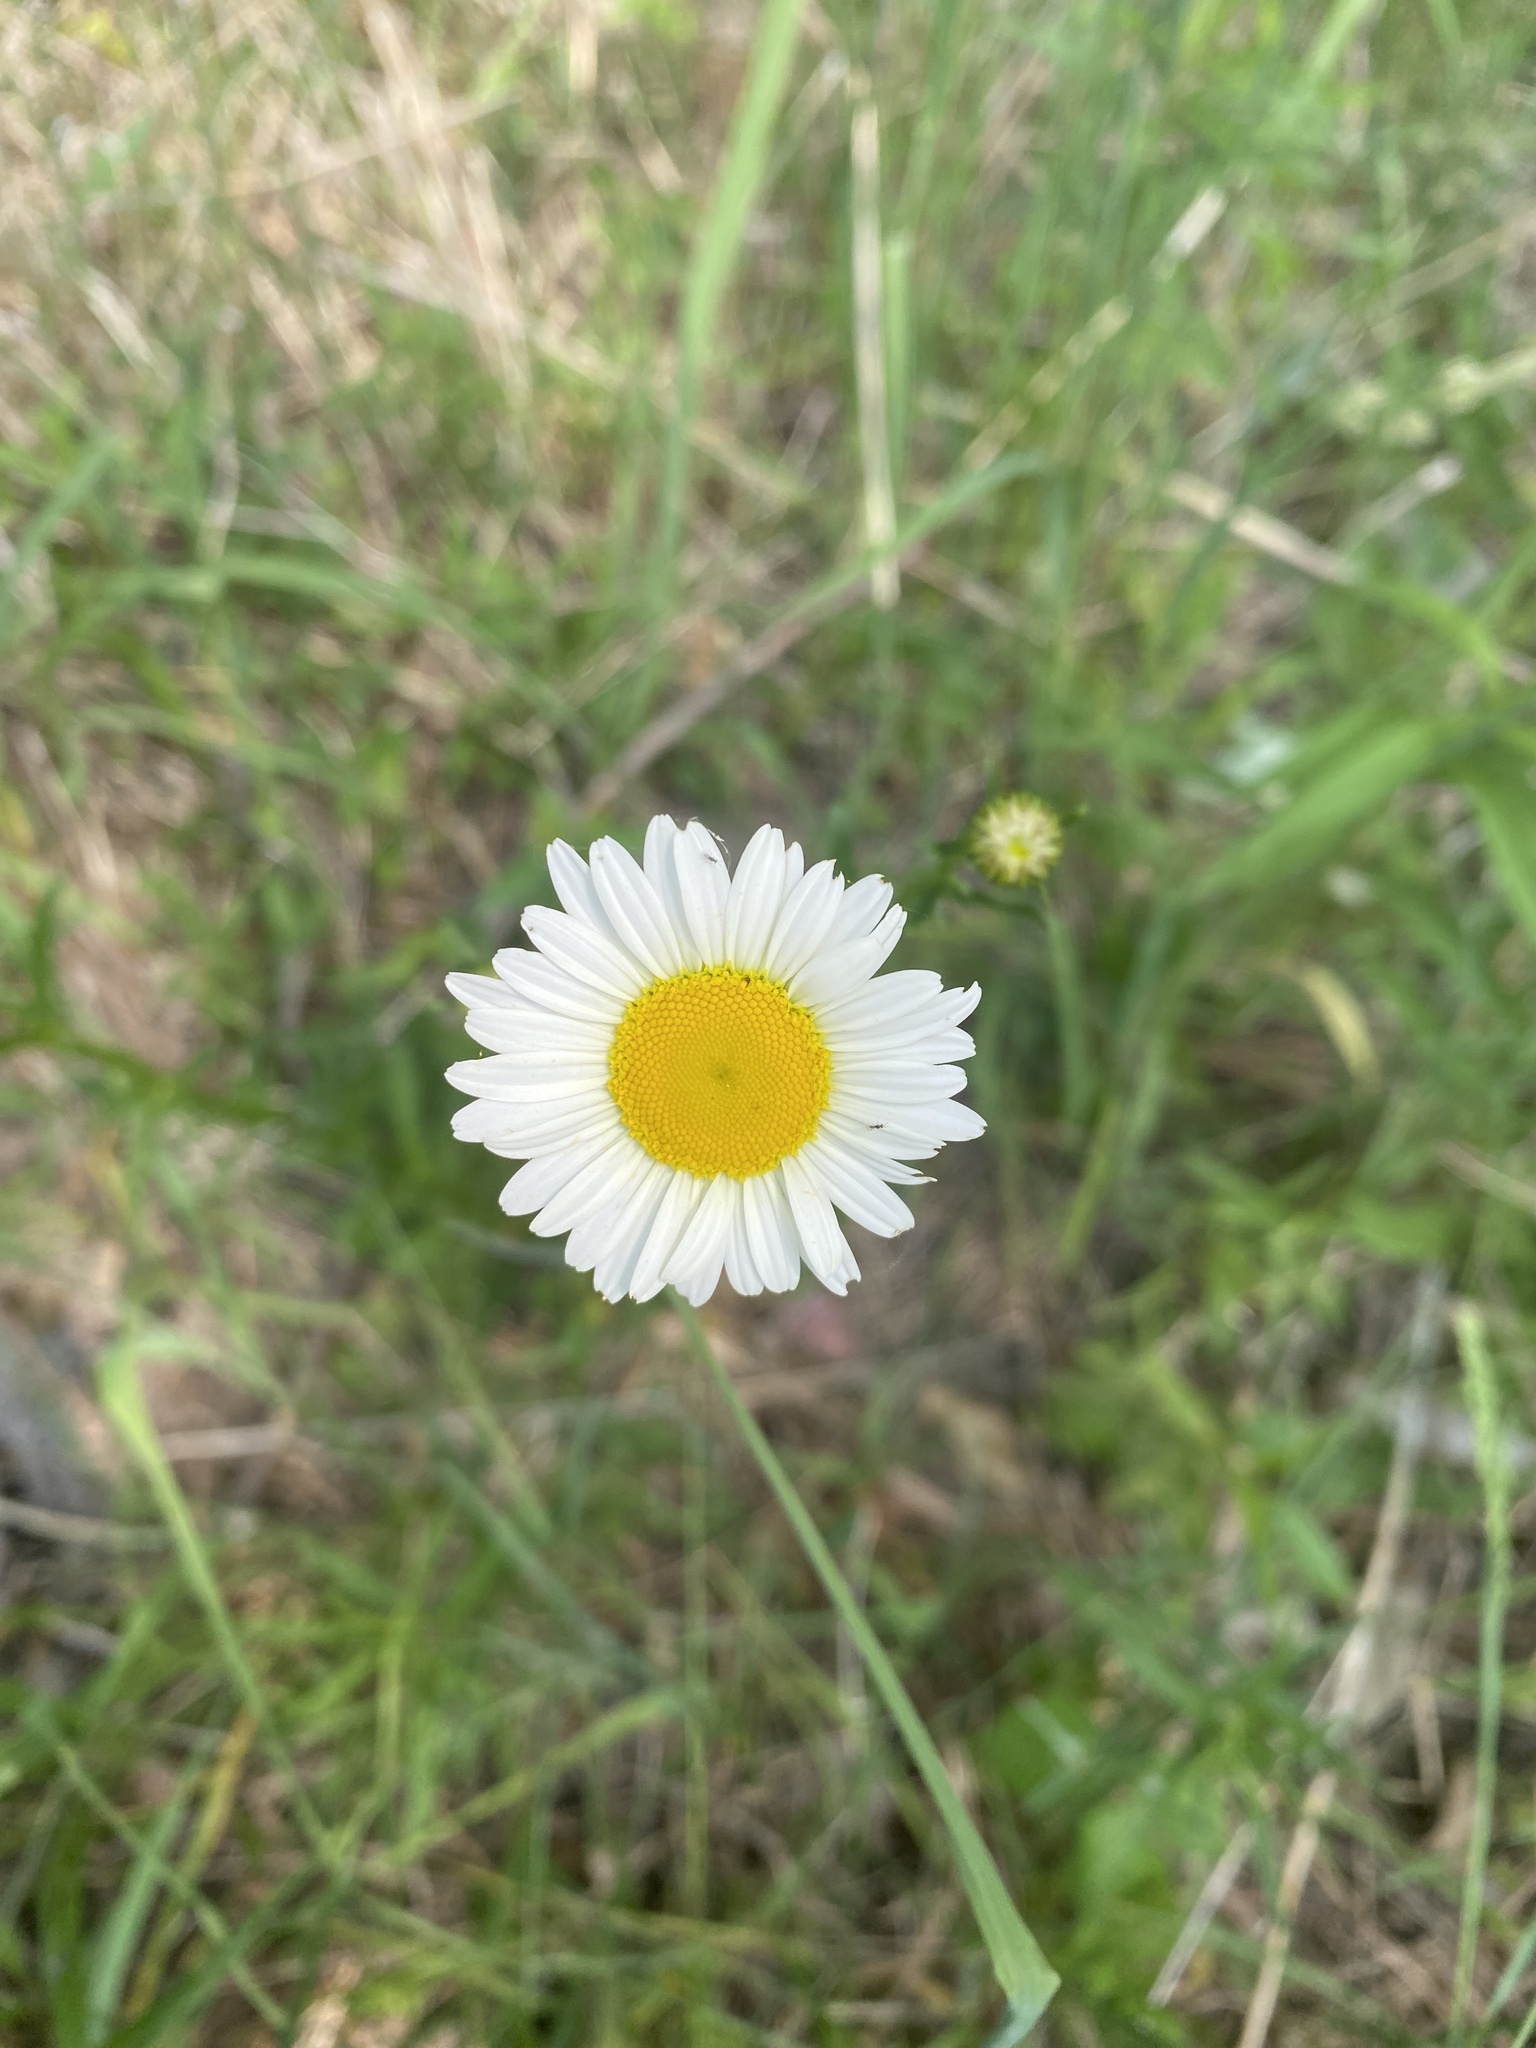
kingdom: Plantae
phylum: Tracheophyta
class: Magnoliopsida
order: Asterales
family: Asteraceae
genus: Leucanthemum
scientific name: Leucanthemum vulgare
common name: Oxeye daisy
